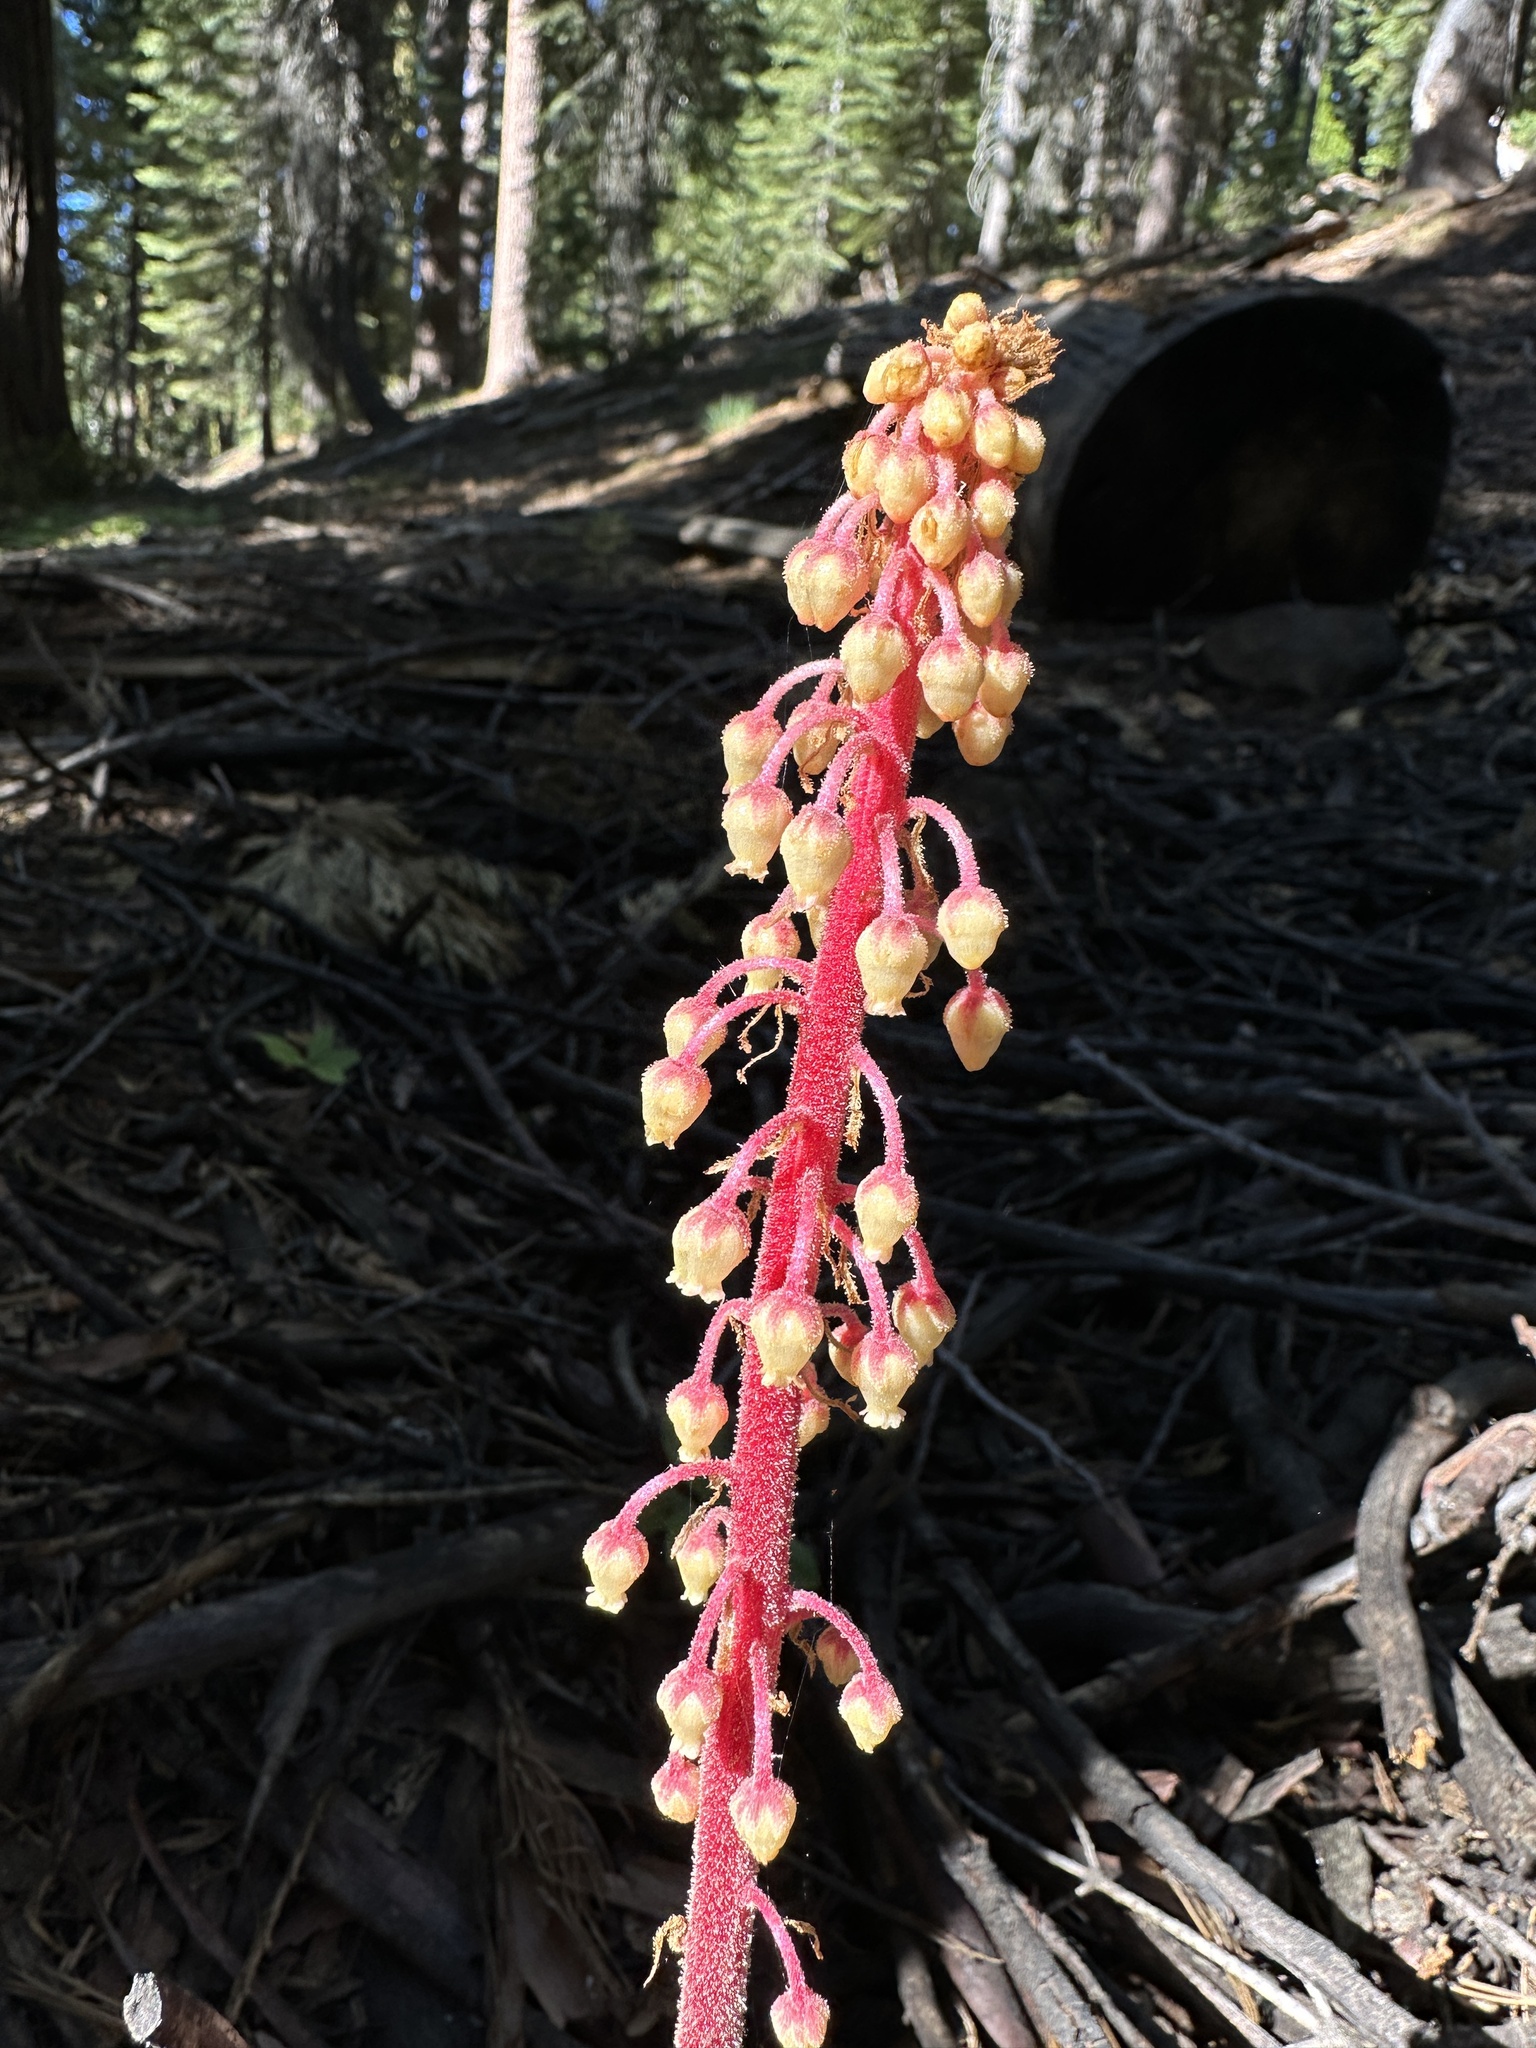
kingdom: Plantae
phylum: Tracheophyta
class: Magnoliopsida
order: Ericales
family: Ericaceae
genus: Pterospora
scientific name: Pterospora andromedea
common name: Giant bird's-nest
